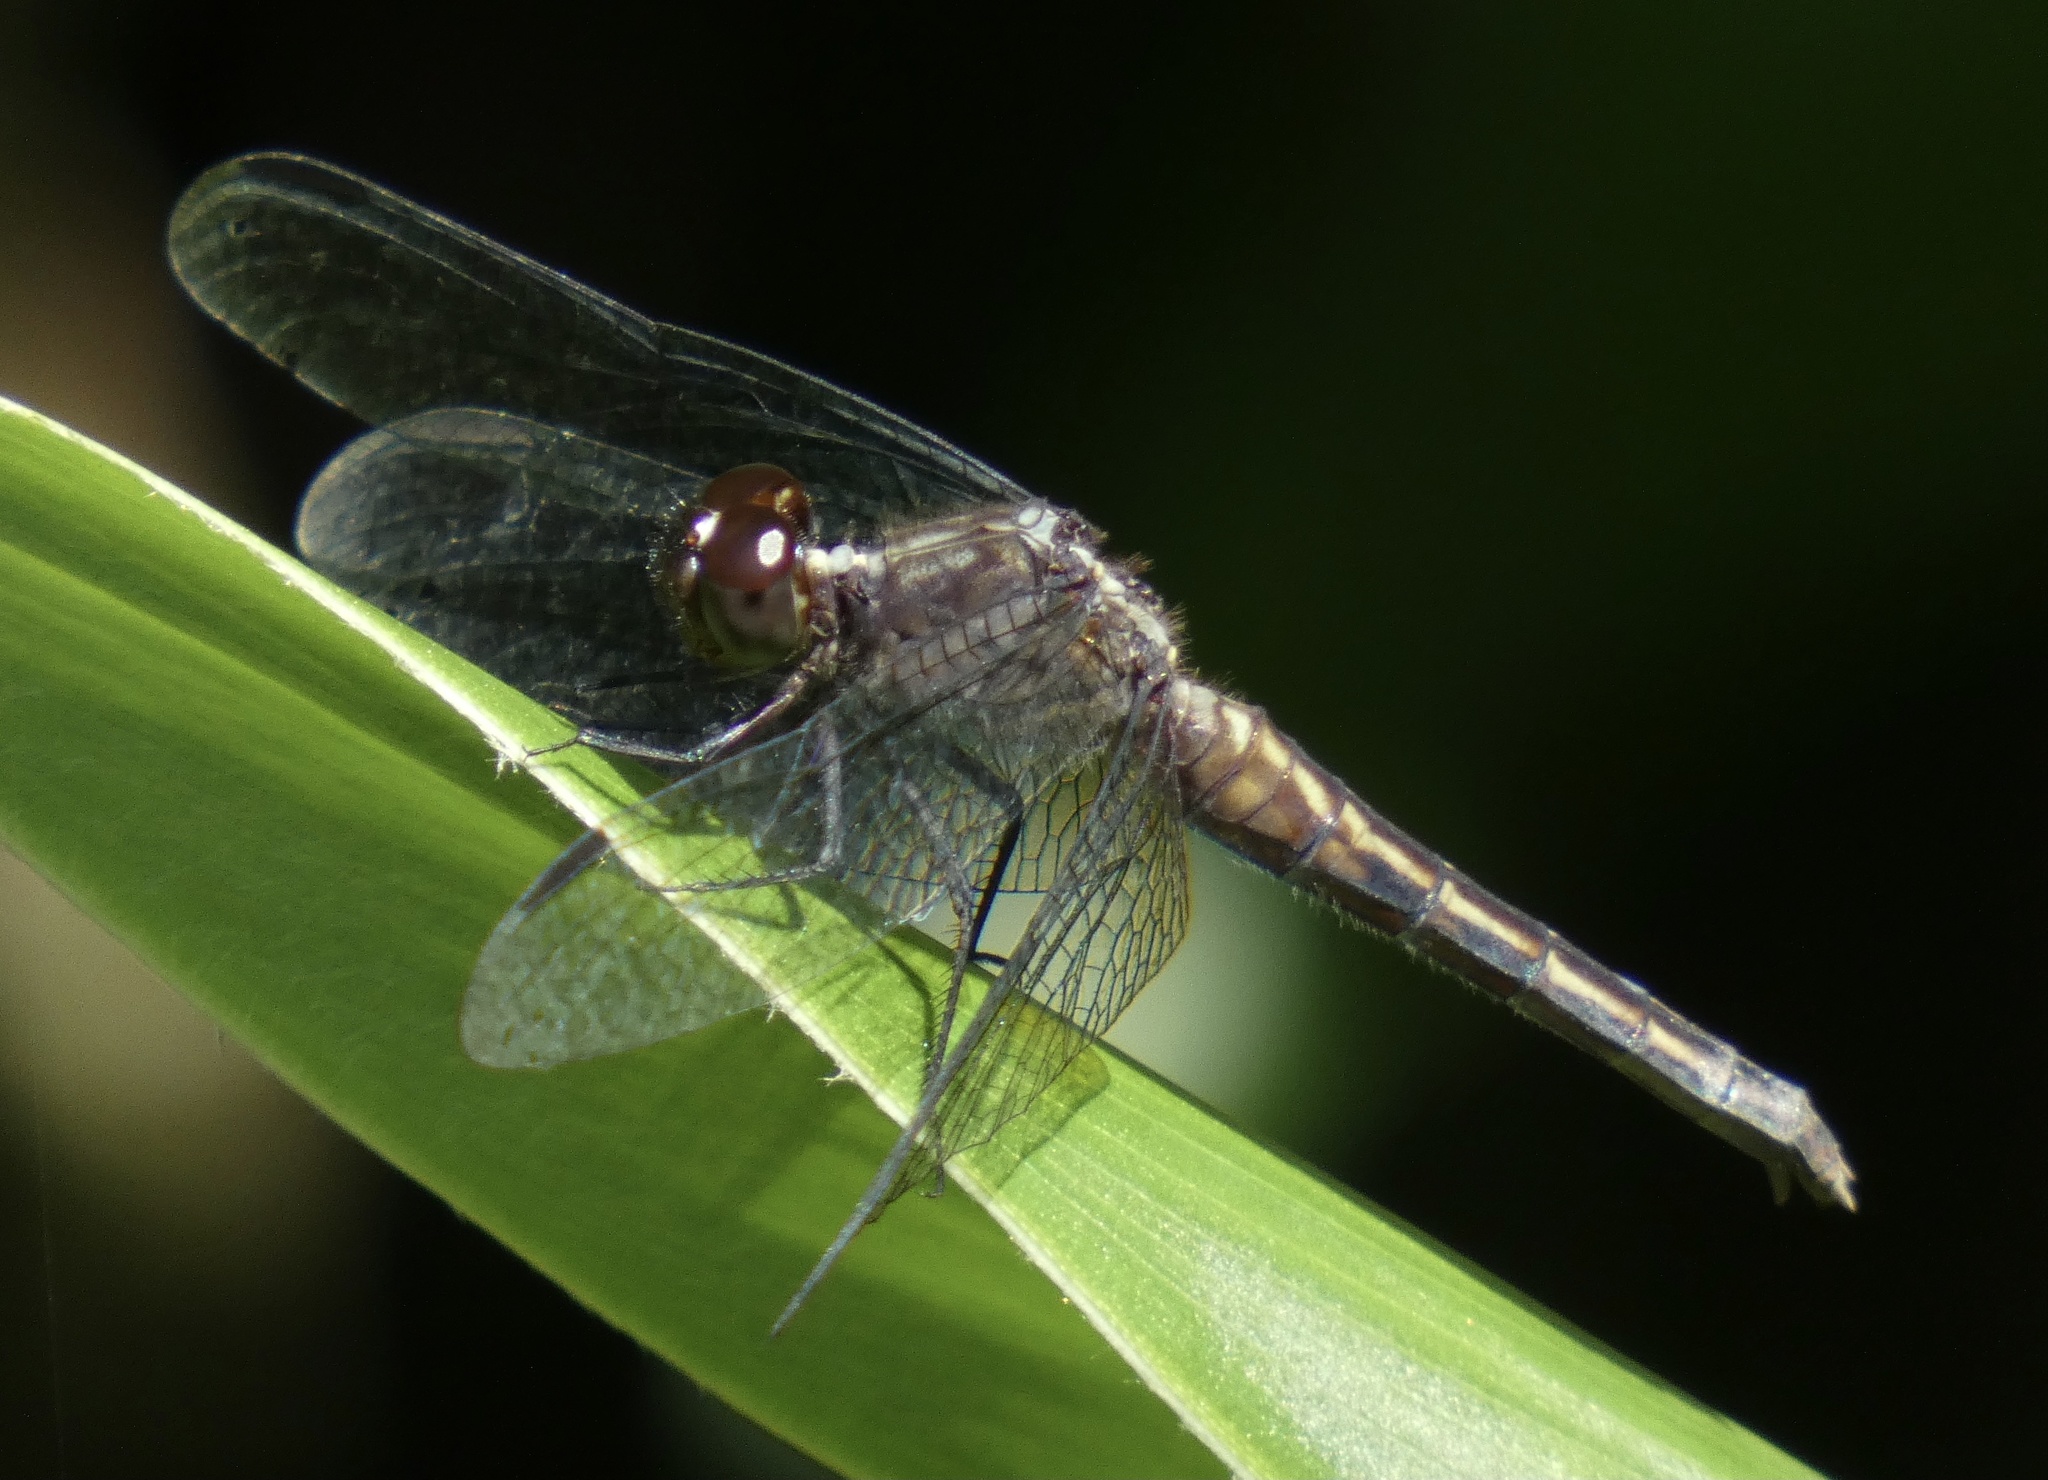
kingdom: Animalia
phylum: Arthropoda
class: Insecta
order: Odonata
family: Libellulidae
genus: Erythrodiplax
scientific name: Erythrodiplax avittata
